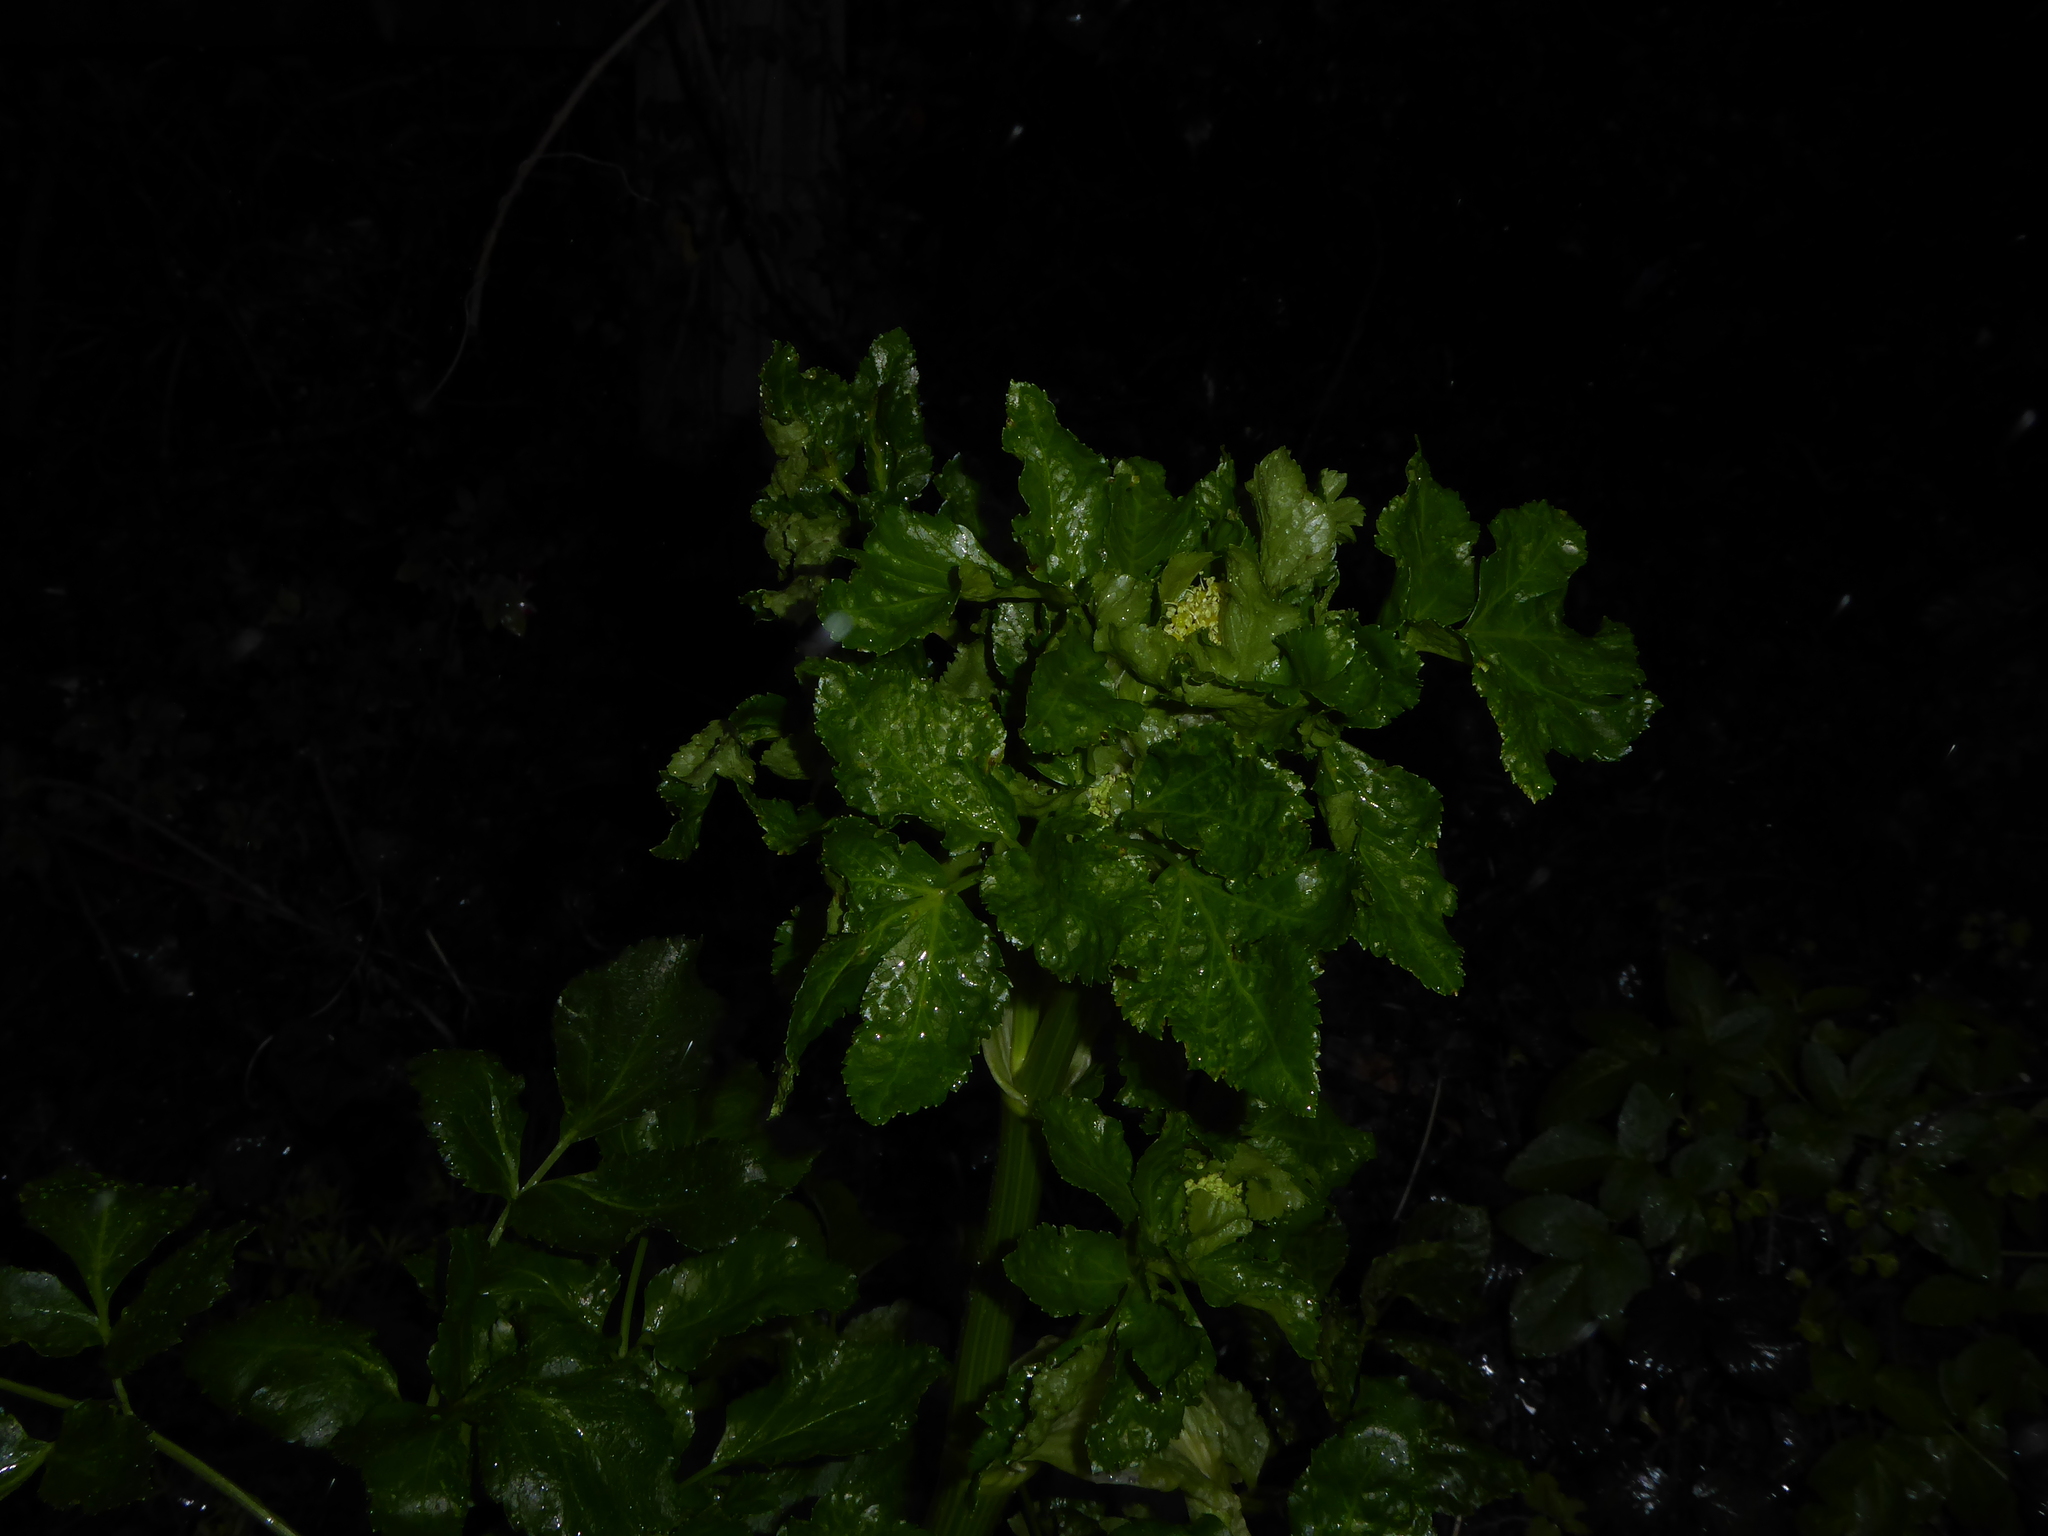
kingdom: Plantae
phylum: Tracheophyta
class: Magnoliopsida
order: Apiales
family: Apiaceae
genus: Smyrnium
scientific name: Smyrnium olusatrum
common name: Alexanders
